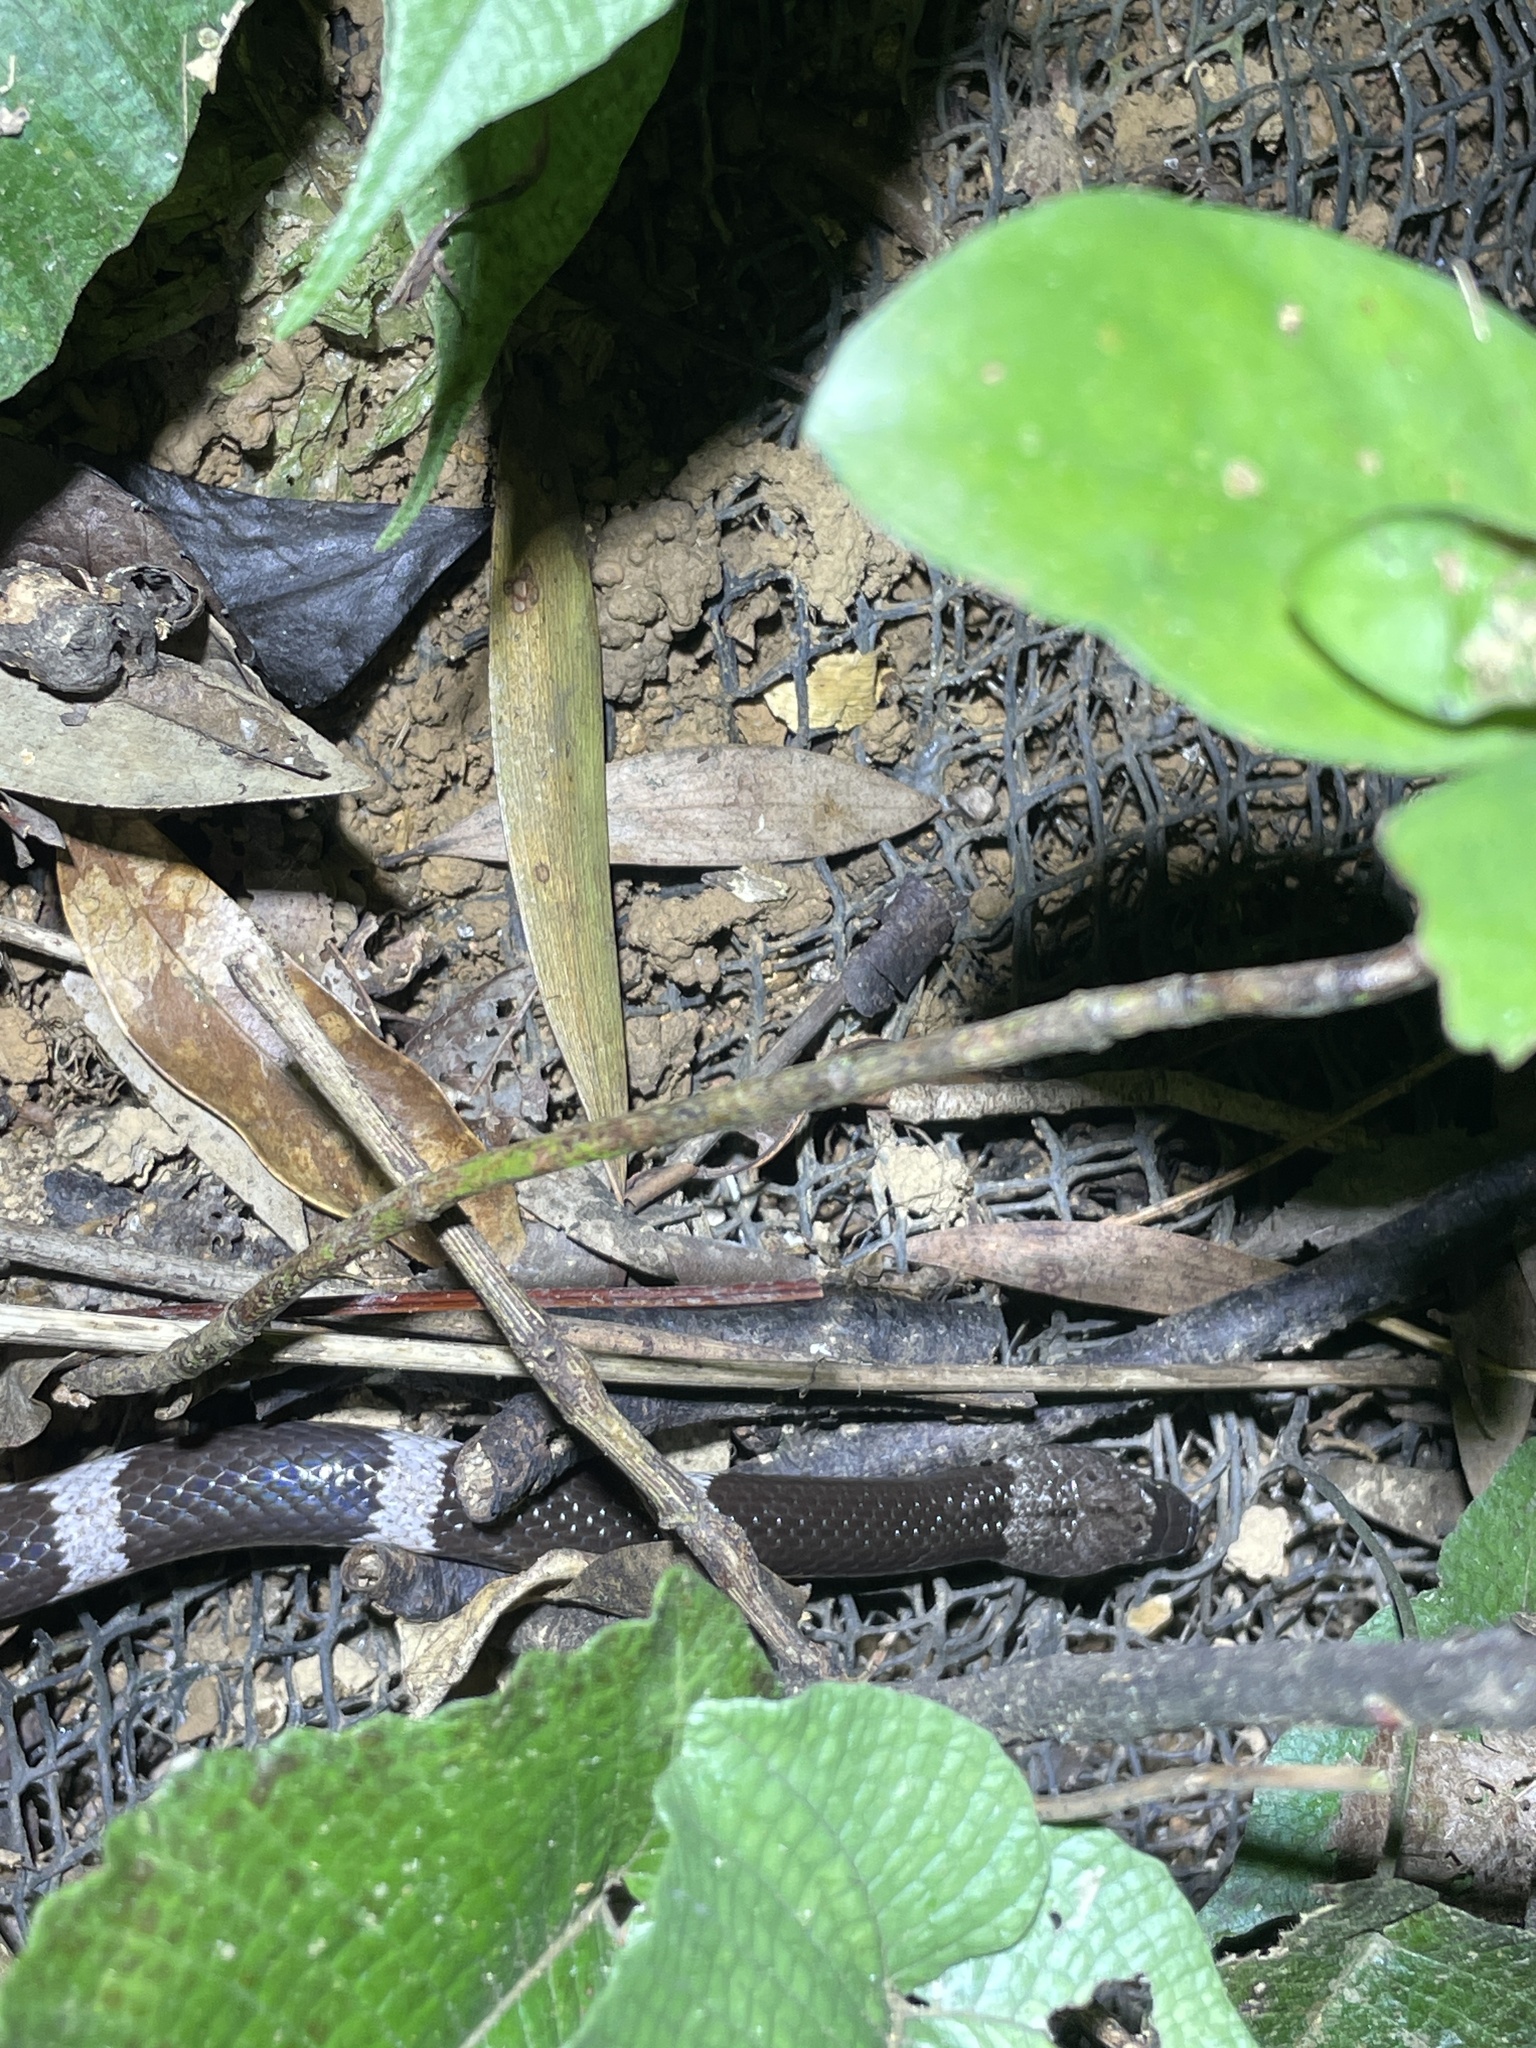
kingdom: Animalia
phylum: Chordata
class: Squamata
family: Colubridae
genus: Lycodon
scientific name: Lycodon futsingensis
